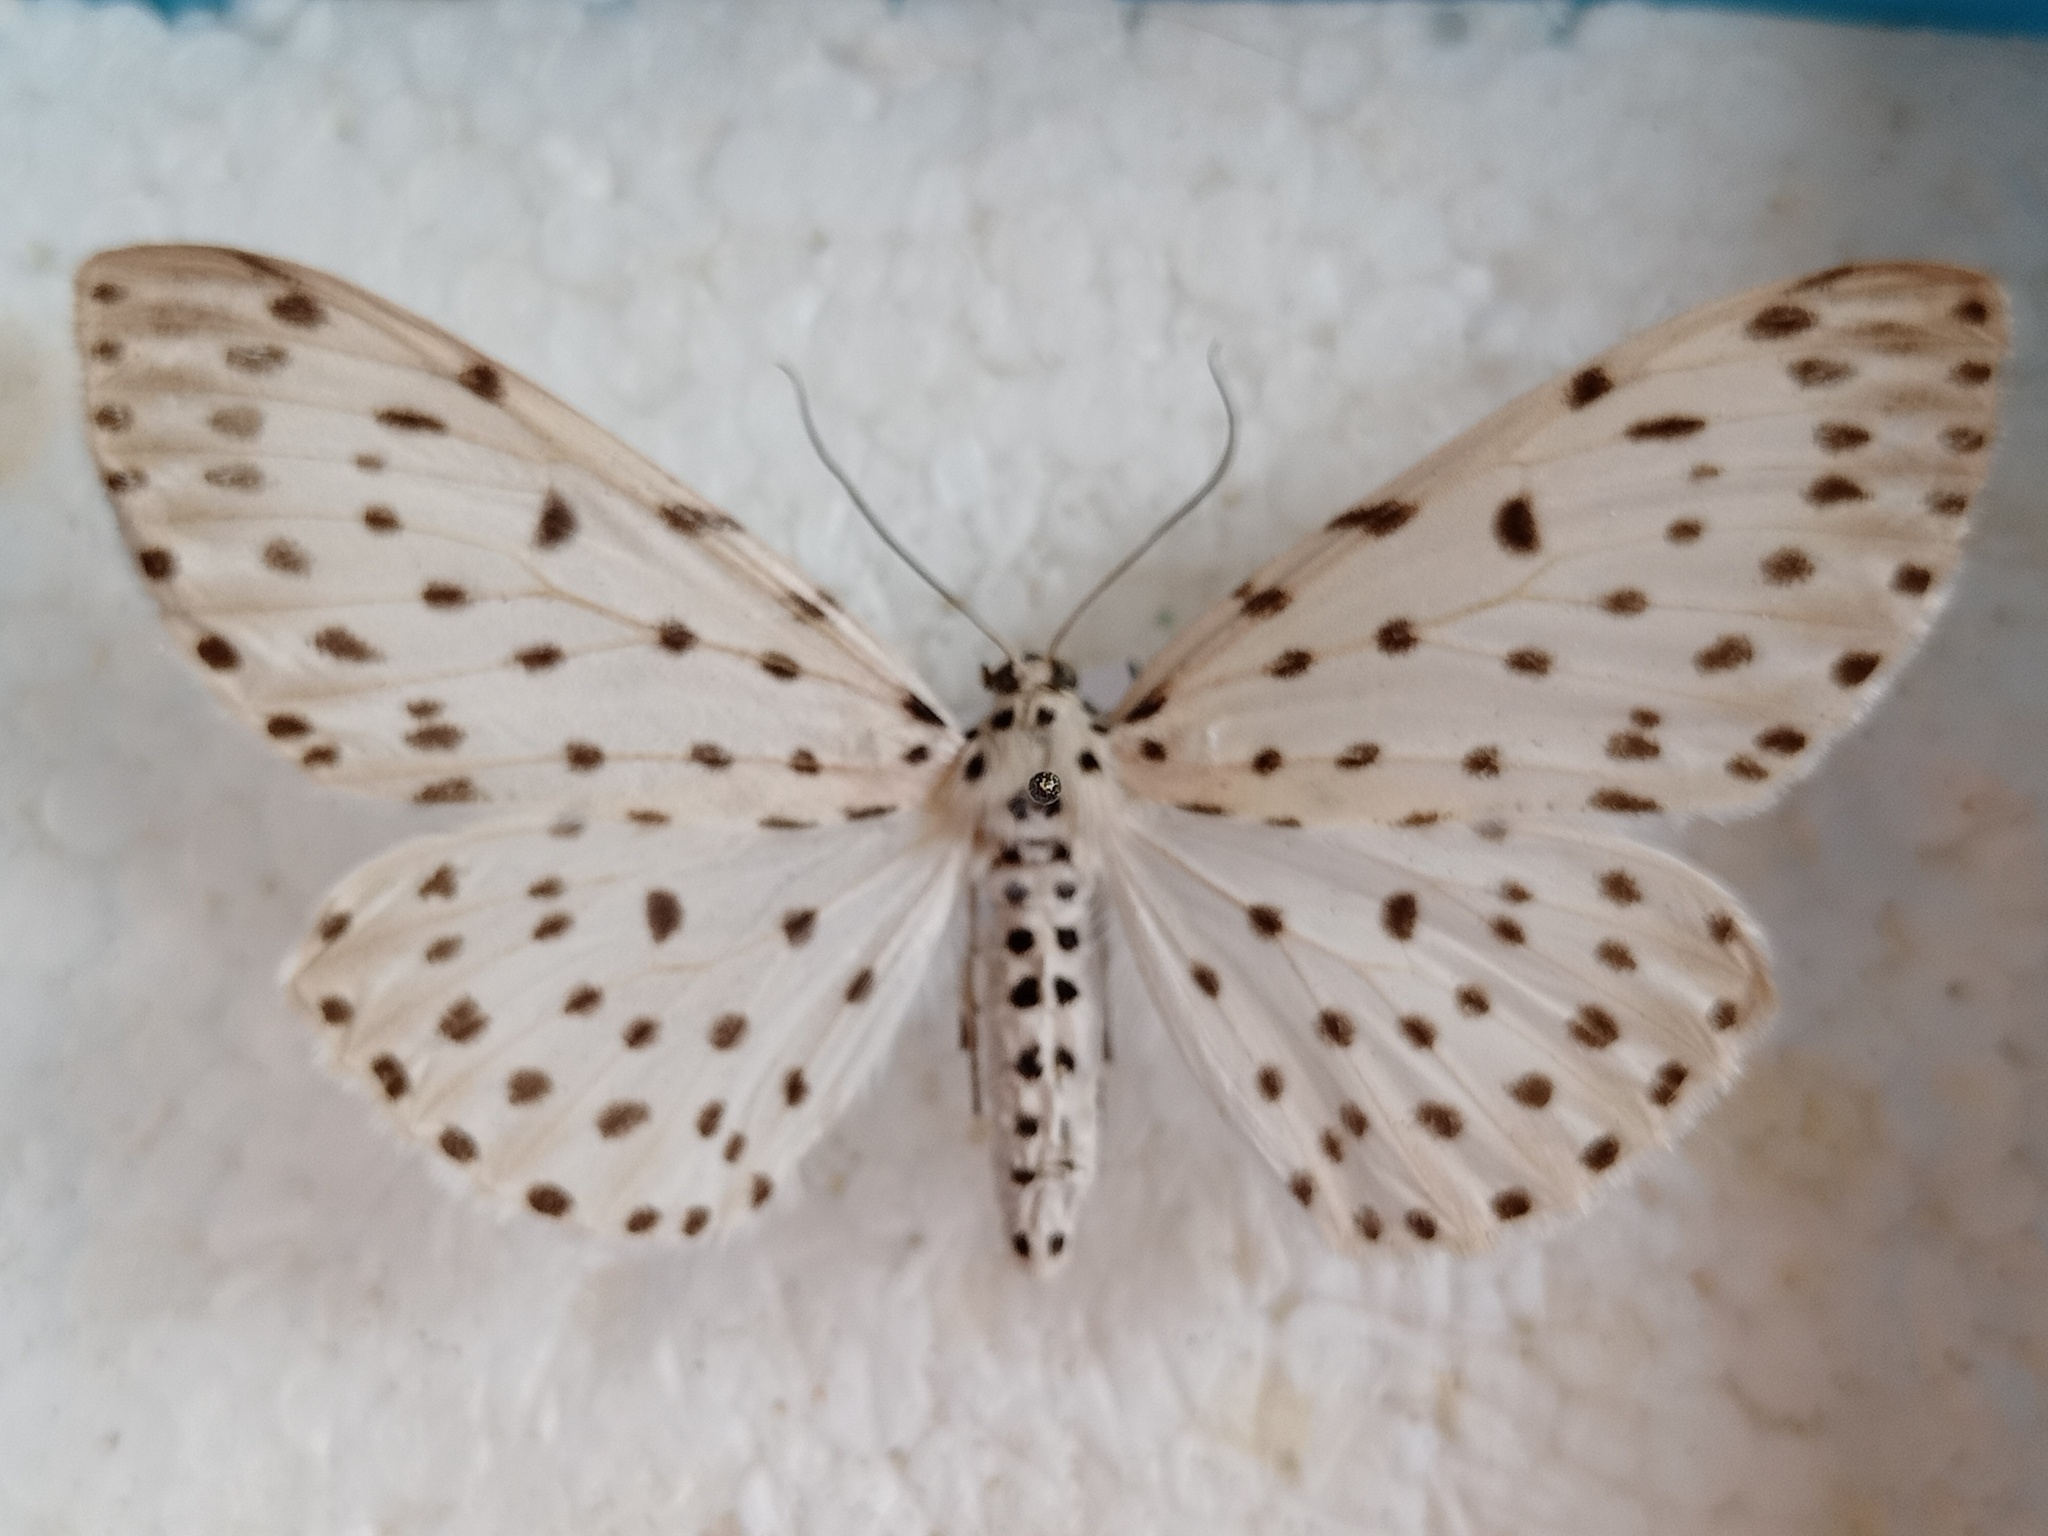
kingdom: Animalia
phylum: Arthropoda
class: Insecta
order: Lepidoptera
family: Geometridae
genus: Antipercnia
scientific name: Antipercnia belluaria
